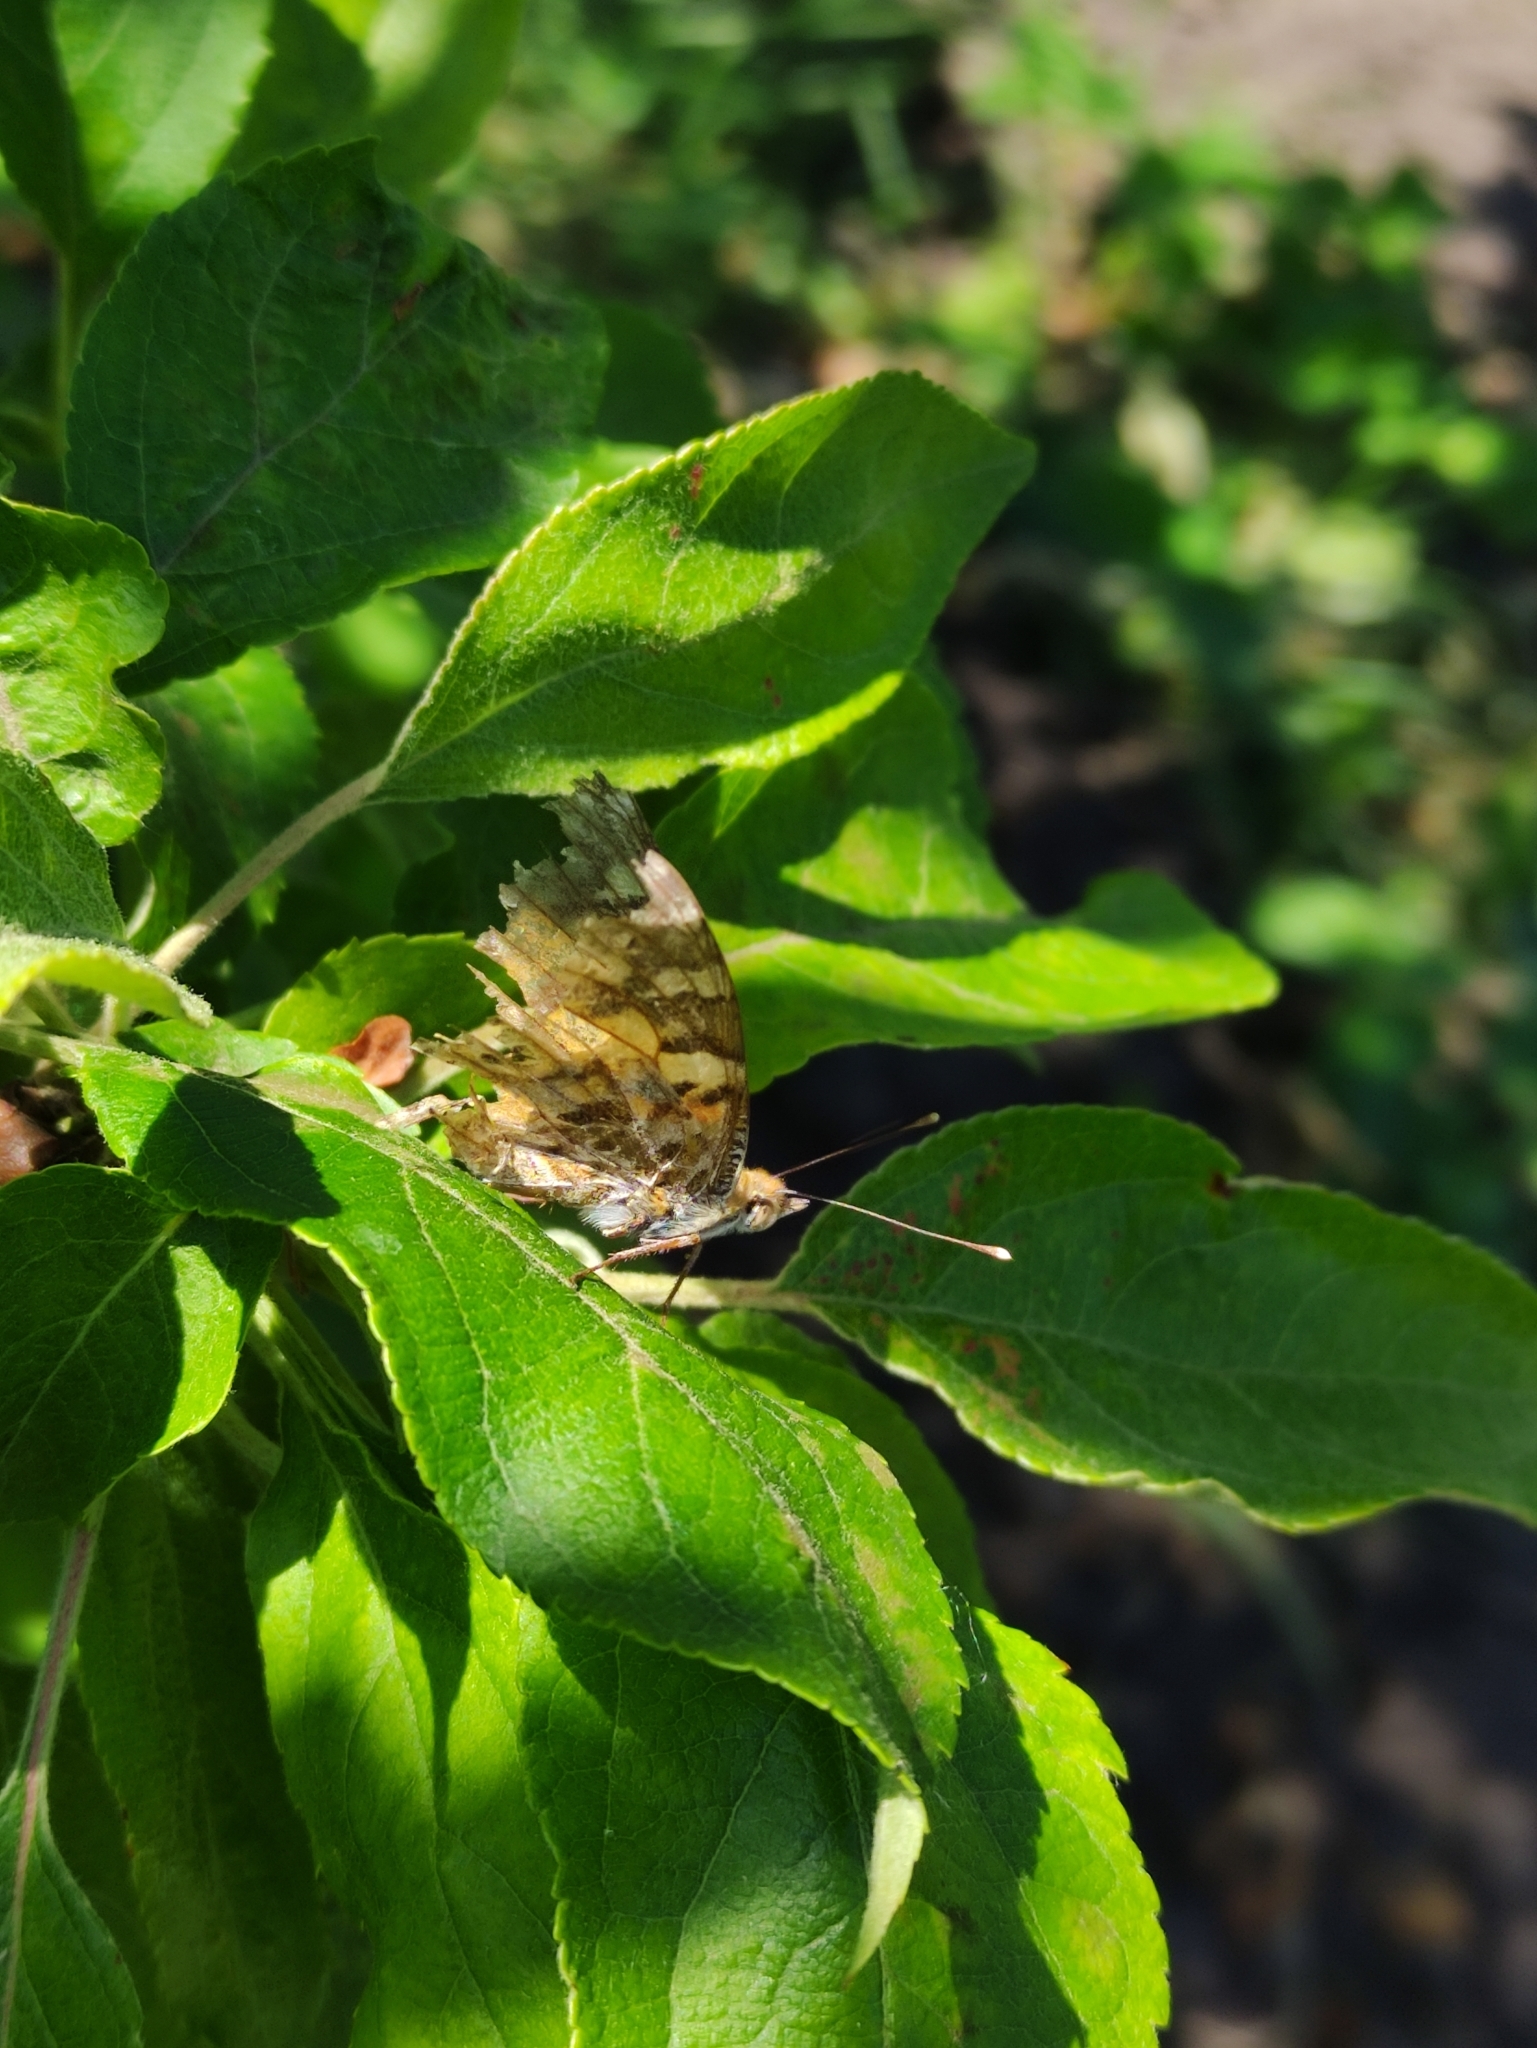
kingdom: Animalia
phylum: Arthropoda
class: Insecta
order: Lepidoptera
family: Nymphalidae
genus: Vanessa
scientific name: Vanessa cardui
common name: Painted lady
